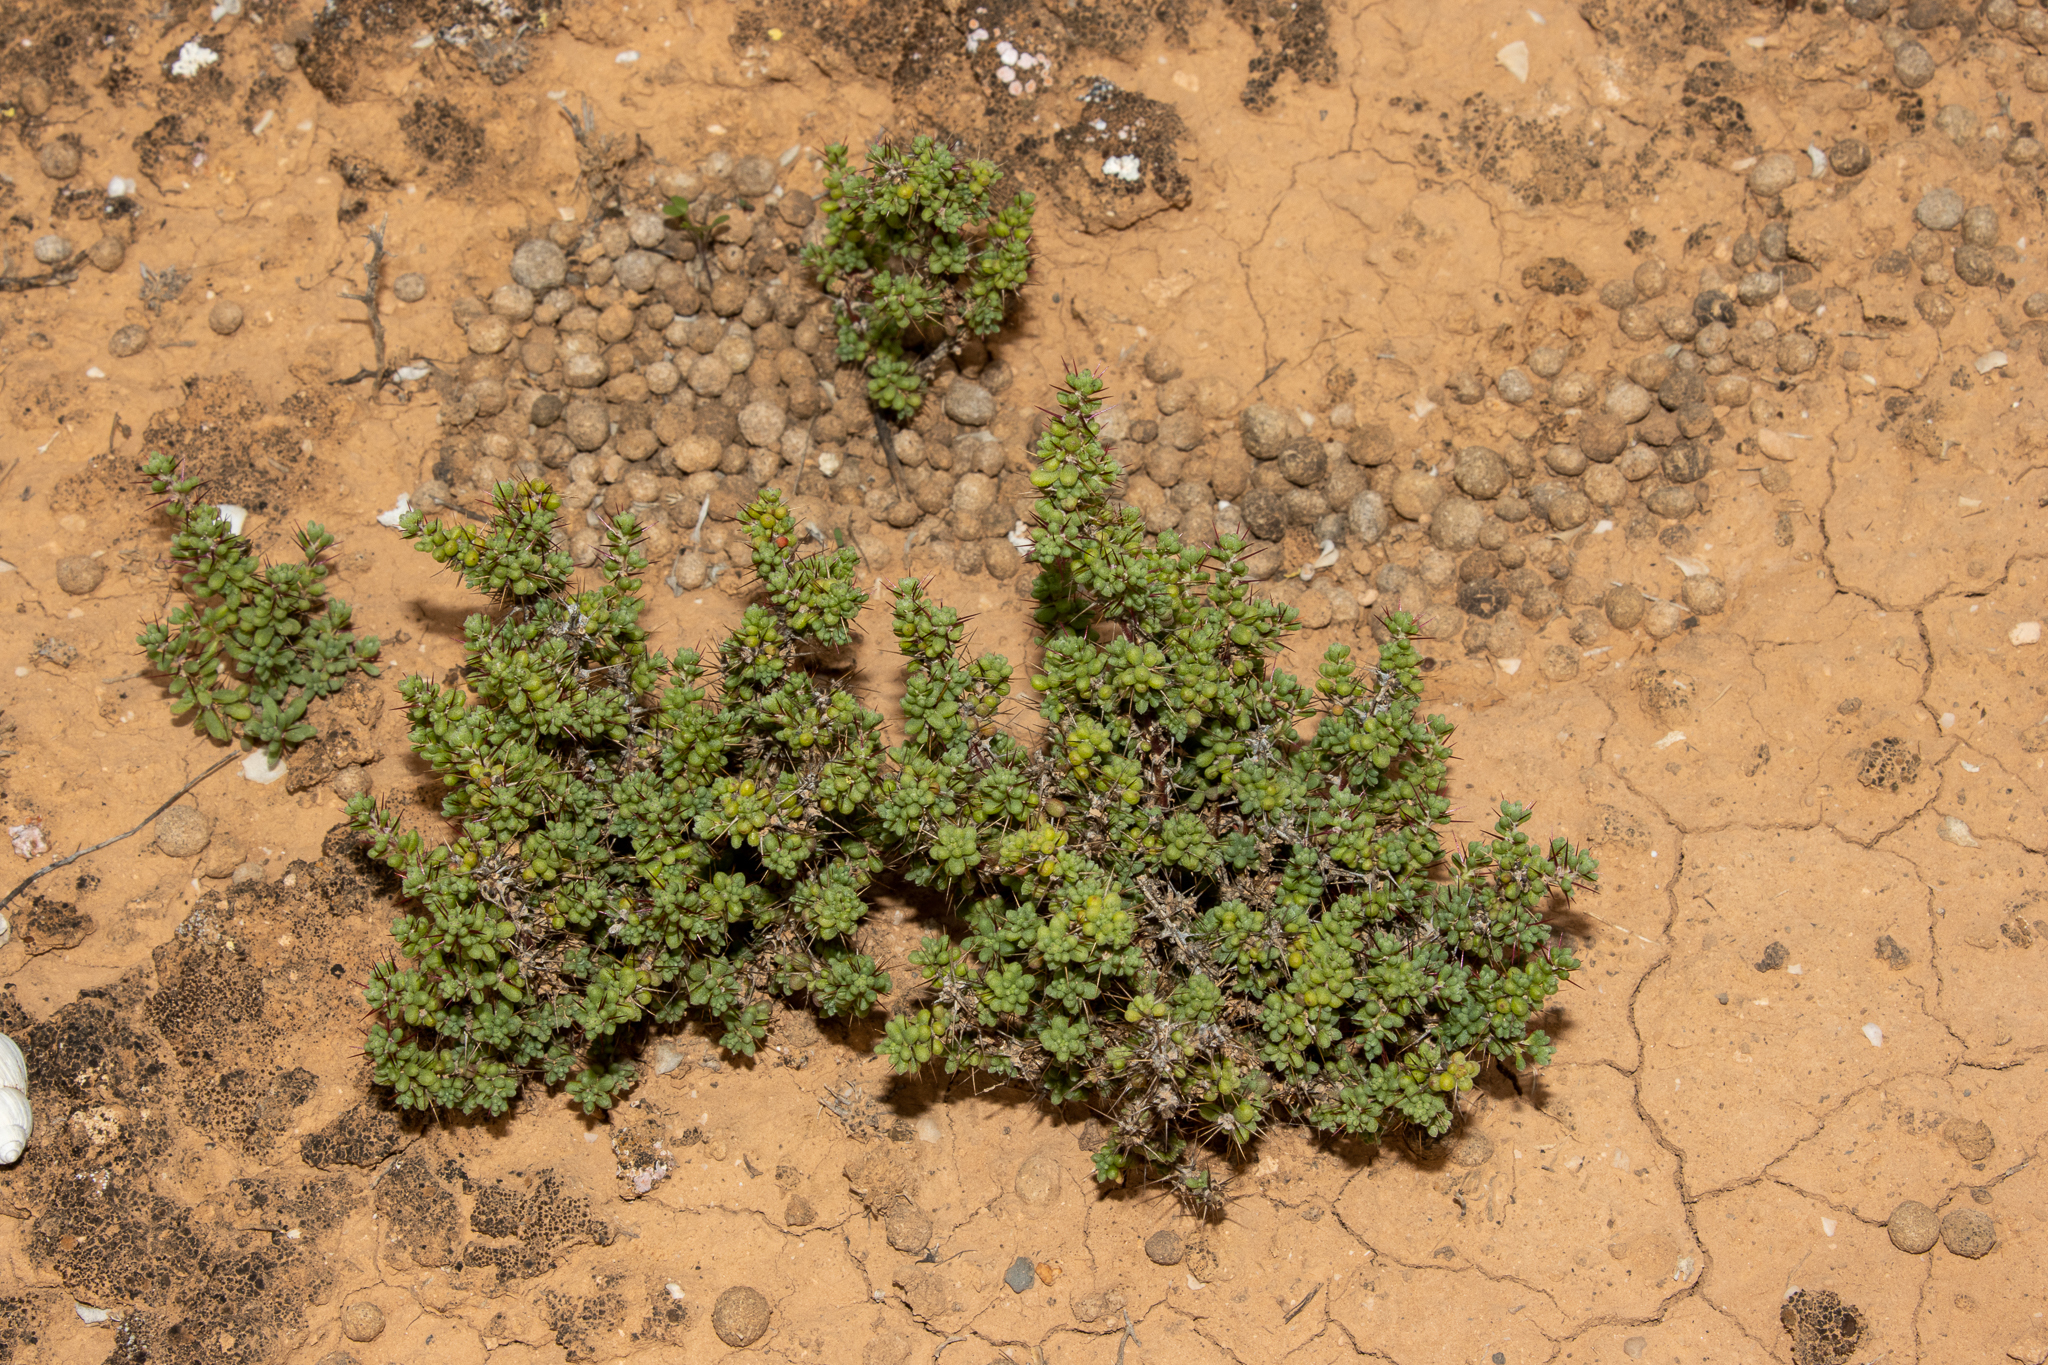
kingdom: Plantae
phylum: Tracheophyta
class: Magnoliopsida
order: Caryophyllales
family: Amaranthaceae
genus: Sclerolaena
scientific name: Sclerolaena brevifolia
